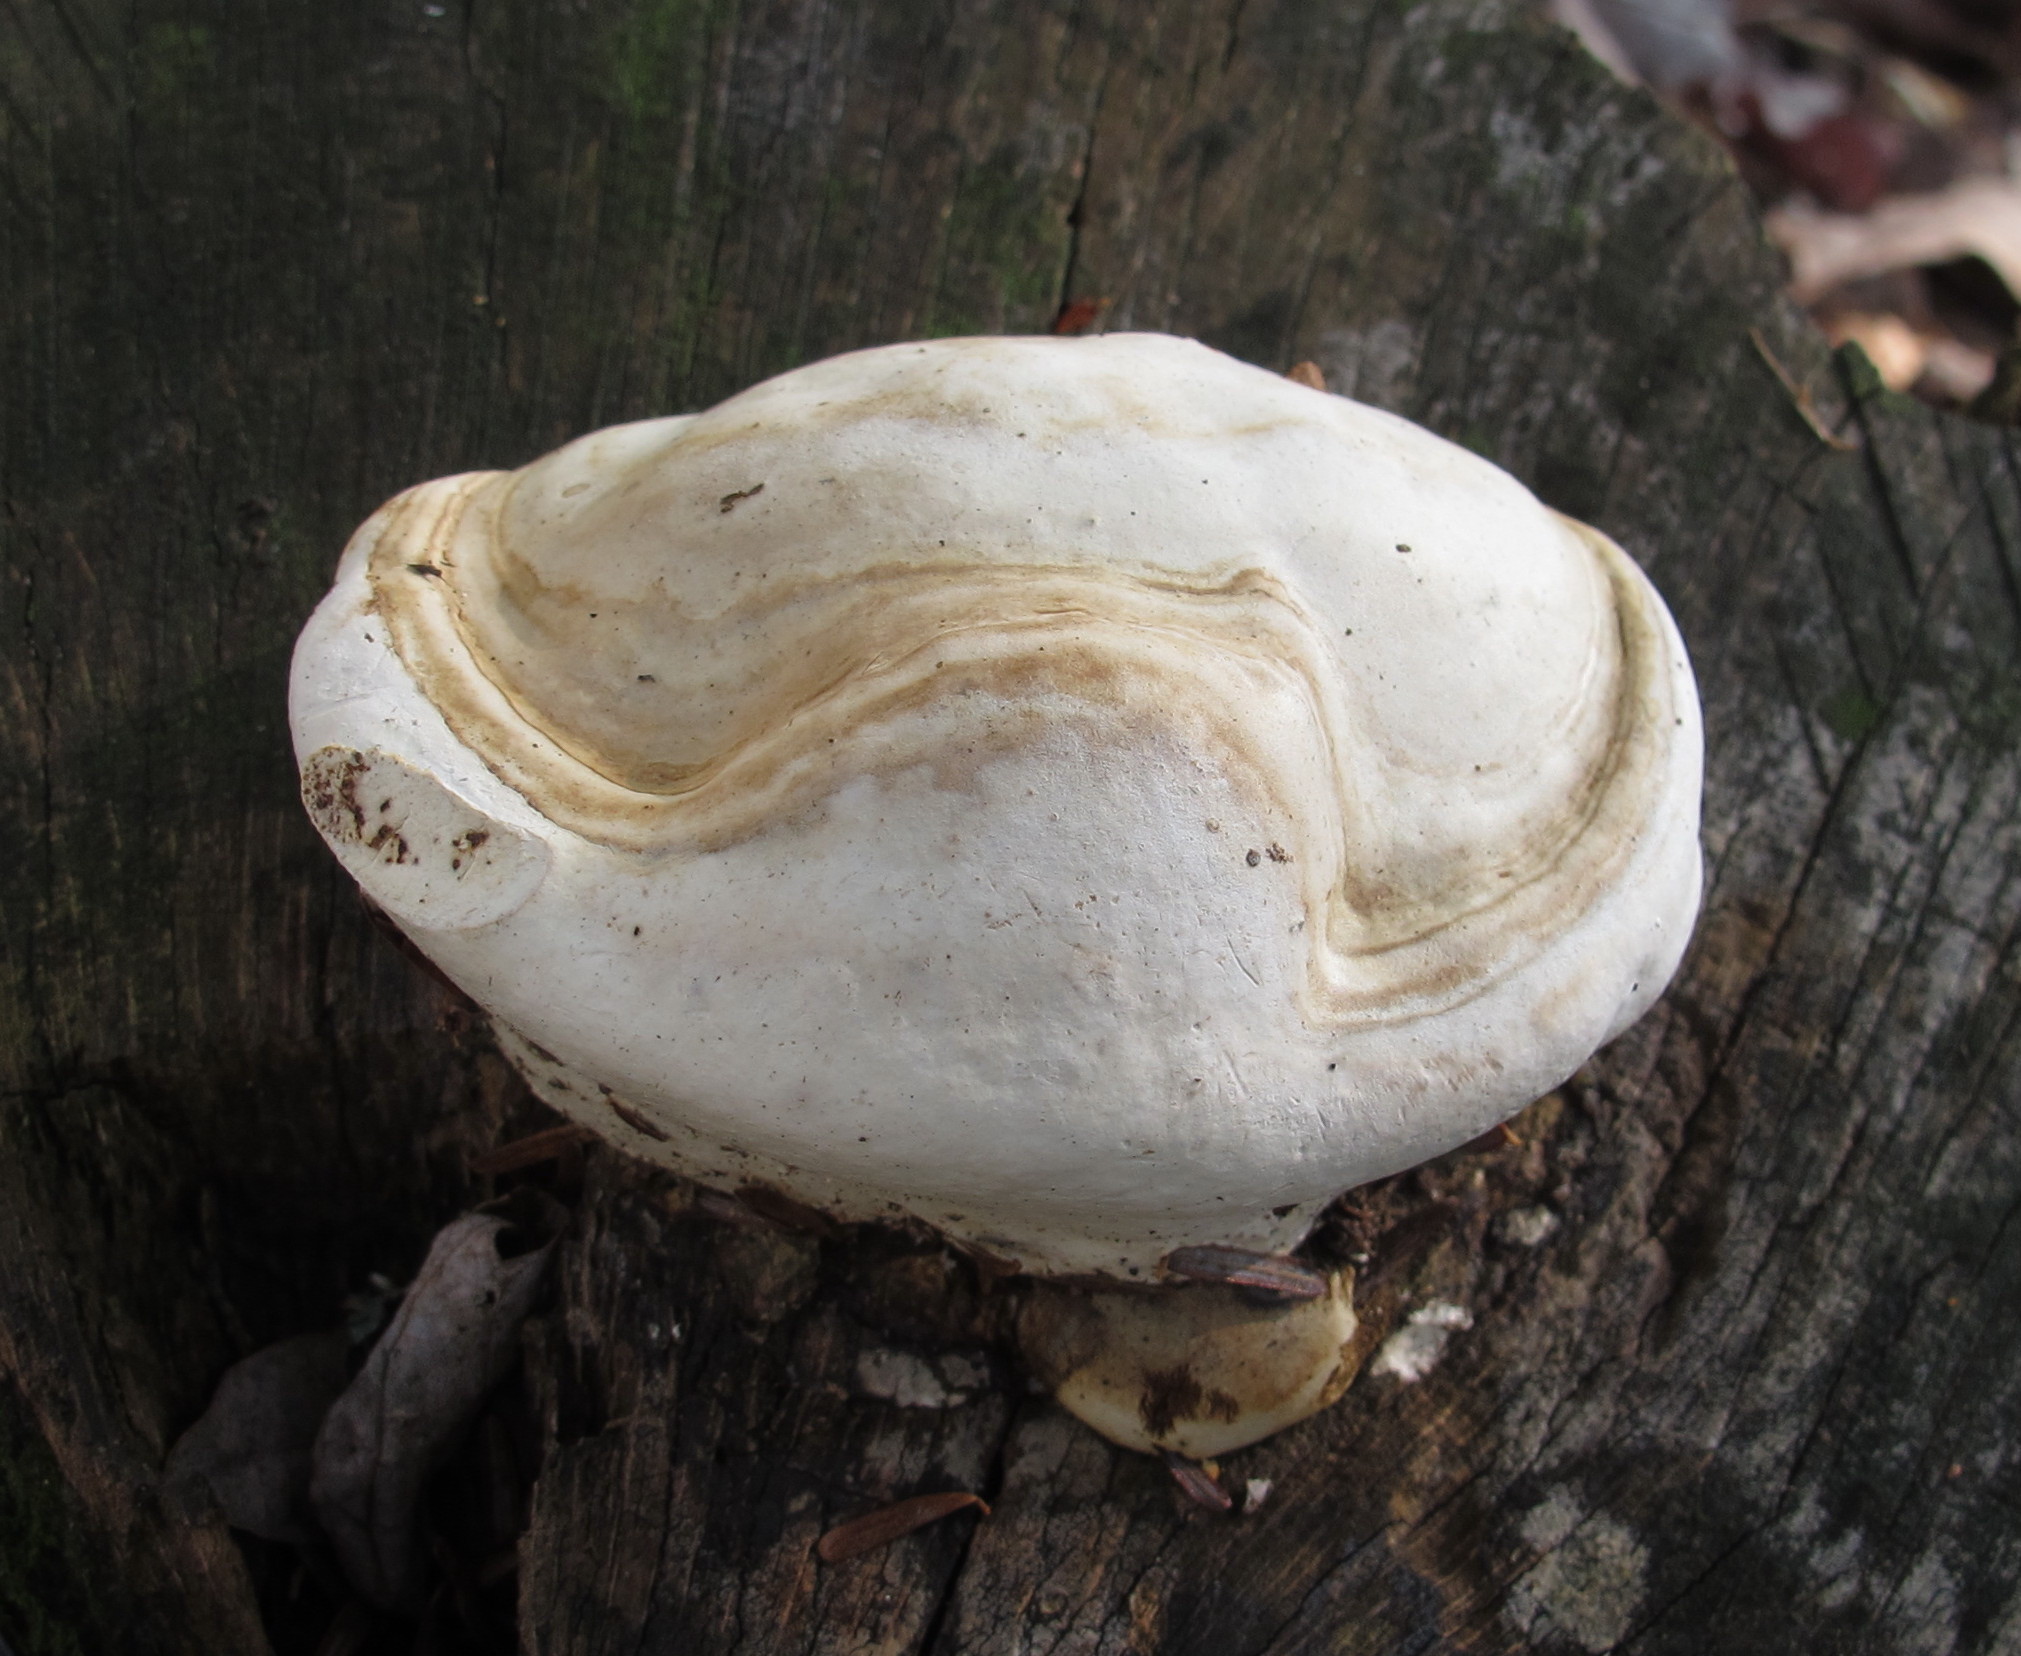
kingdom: Fungi
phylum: Basidiomycota
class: Agaricomycetes
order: Polyporales
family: Polyporaceae
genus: Ganoderma
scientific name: Ganoderma applanatum
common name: Artist's bracket
